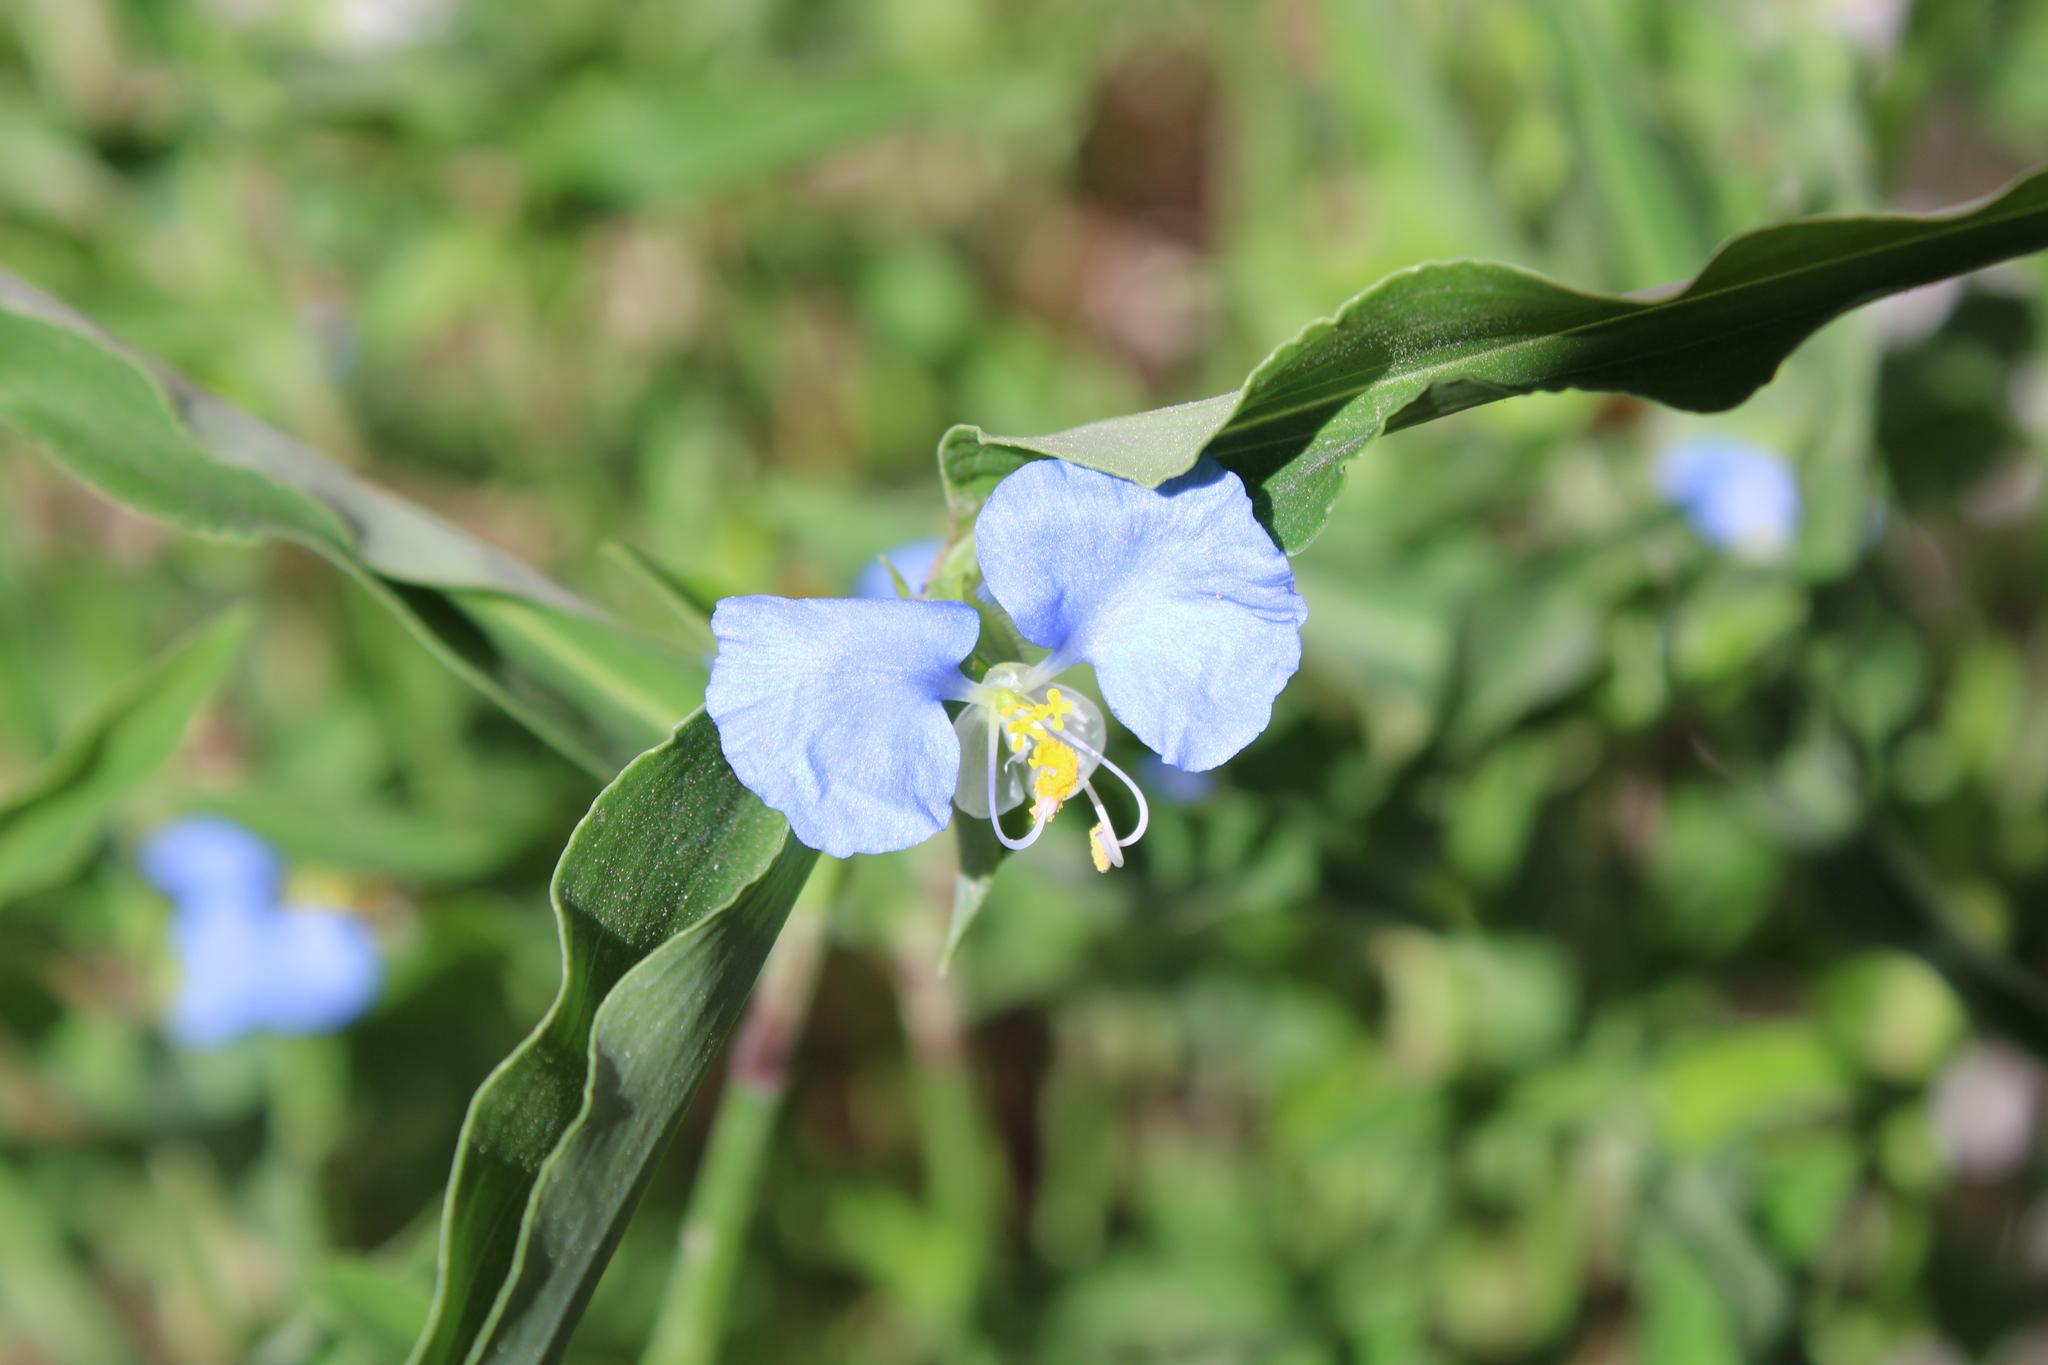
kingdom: Plantae
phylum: Tracheophyta
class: Liliopsida
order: Commelinales
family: Commelinaceae
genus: Commelina
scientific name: Commelina erecta
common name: Blousel blommetjie
